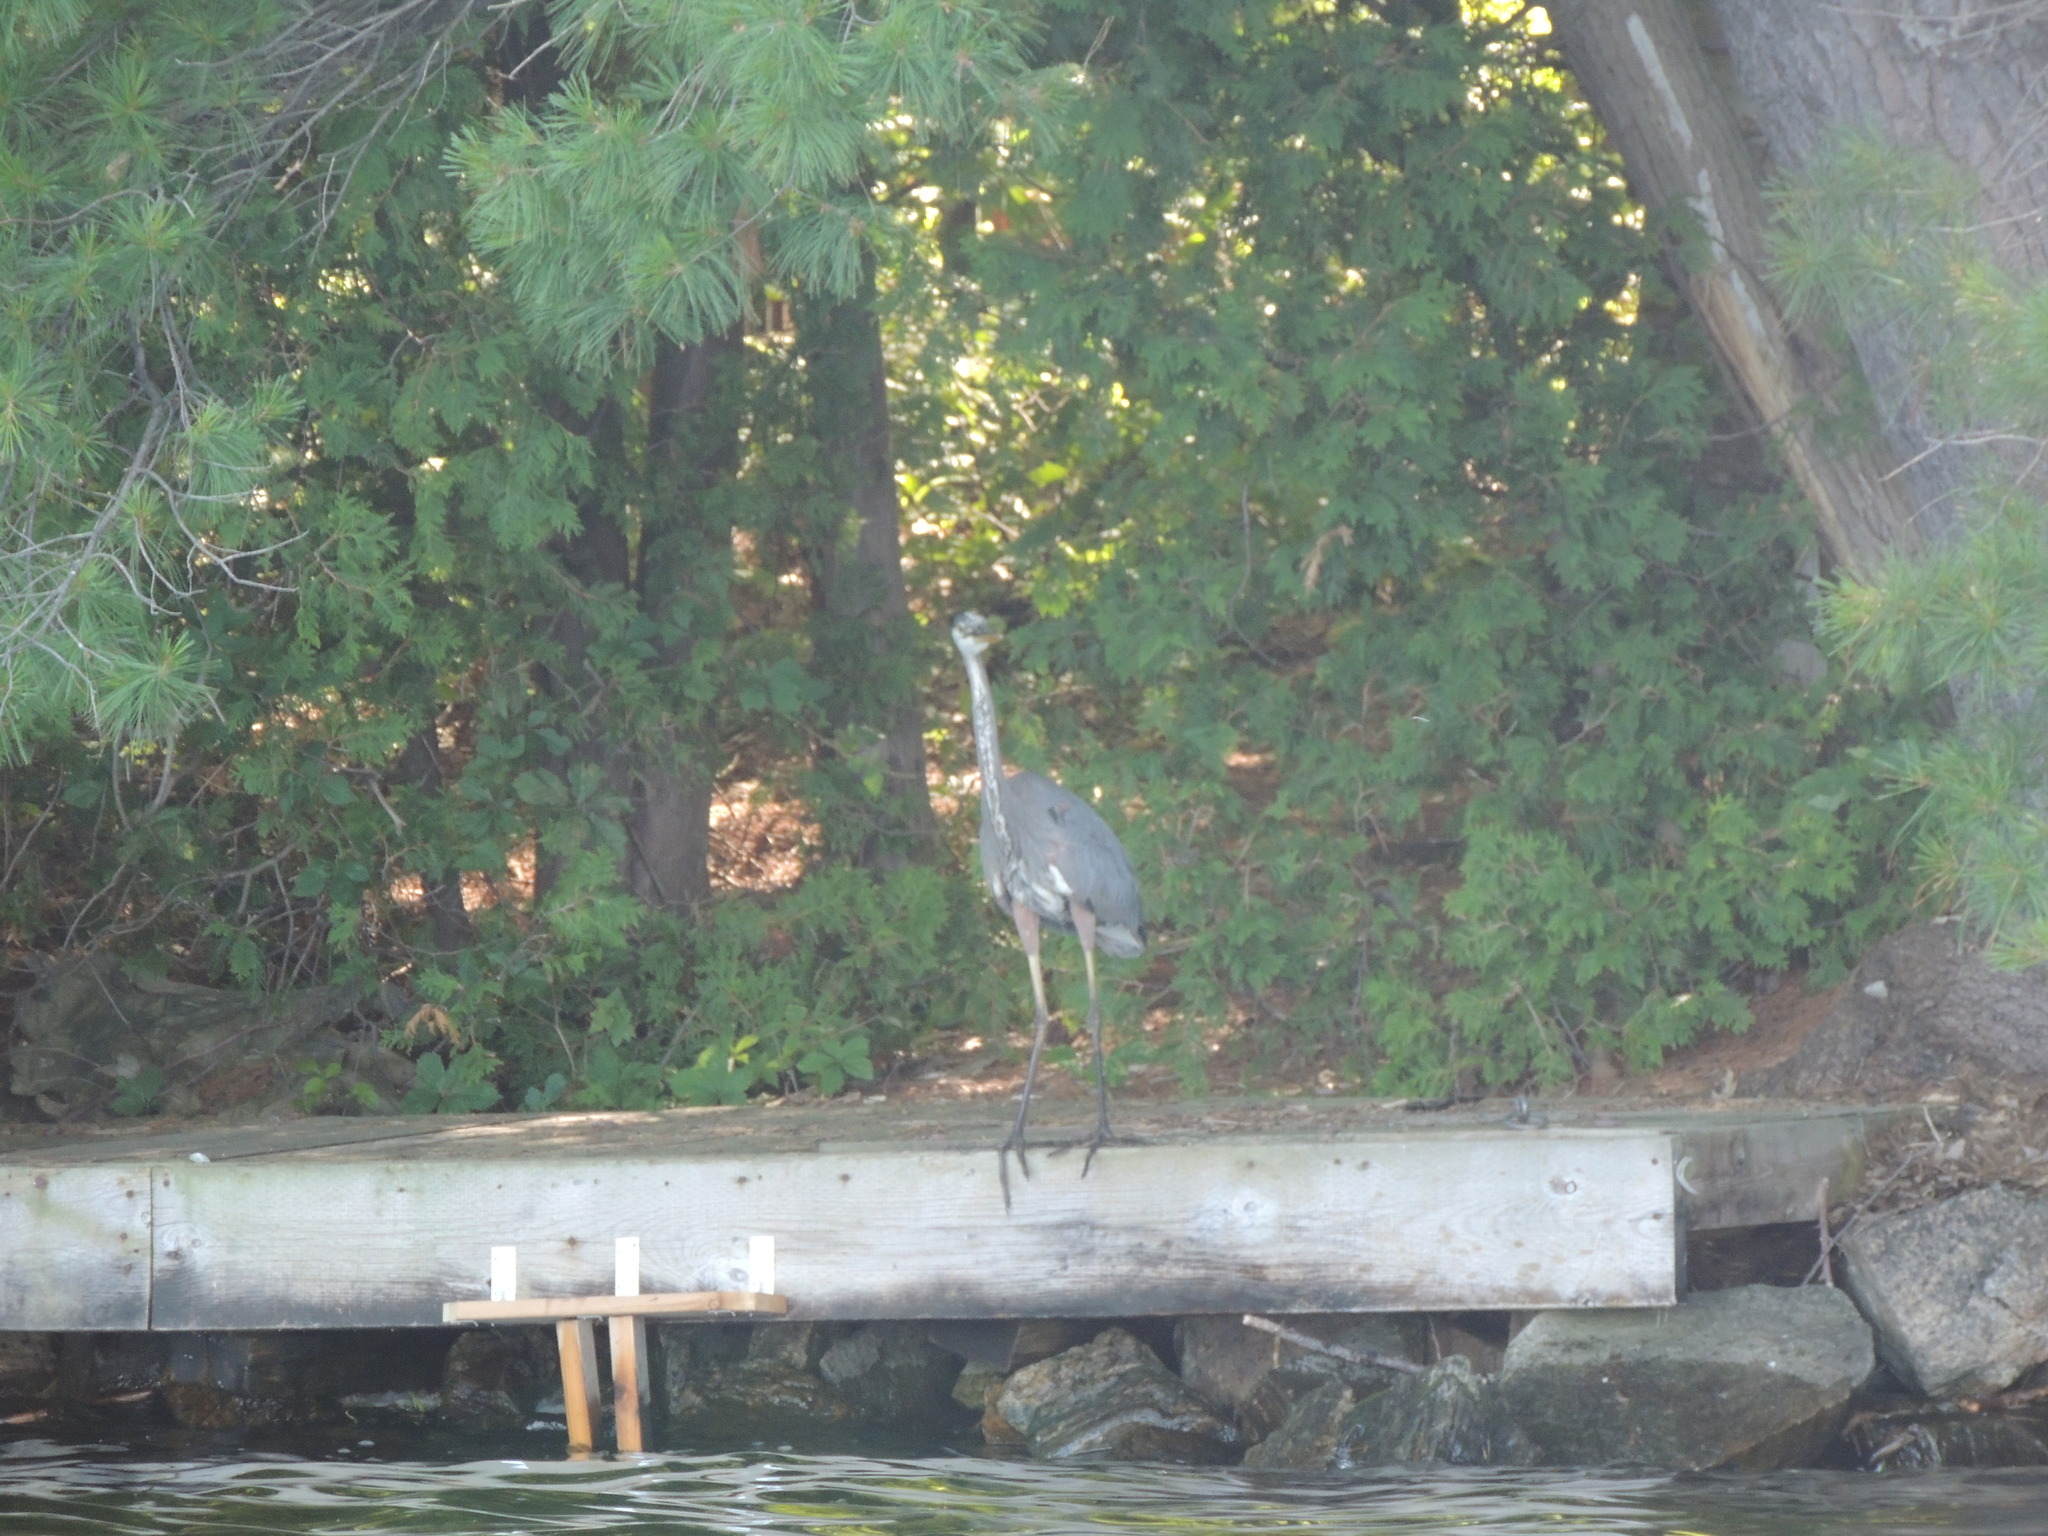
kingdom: Animalia
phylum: Chordata
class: Aves
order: Pelecaniformes
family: Ardeidae
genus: Ardea
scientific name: Ardea herodias
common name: Great blue heron
